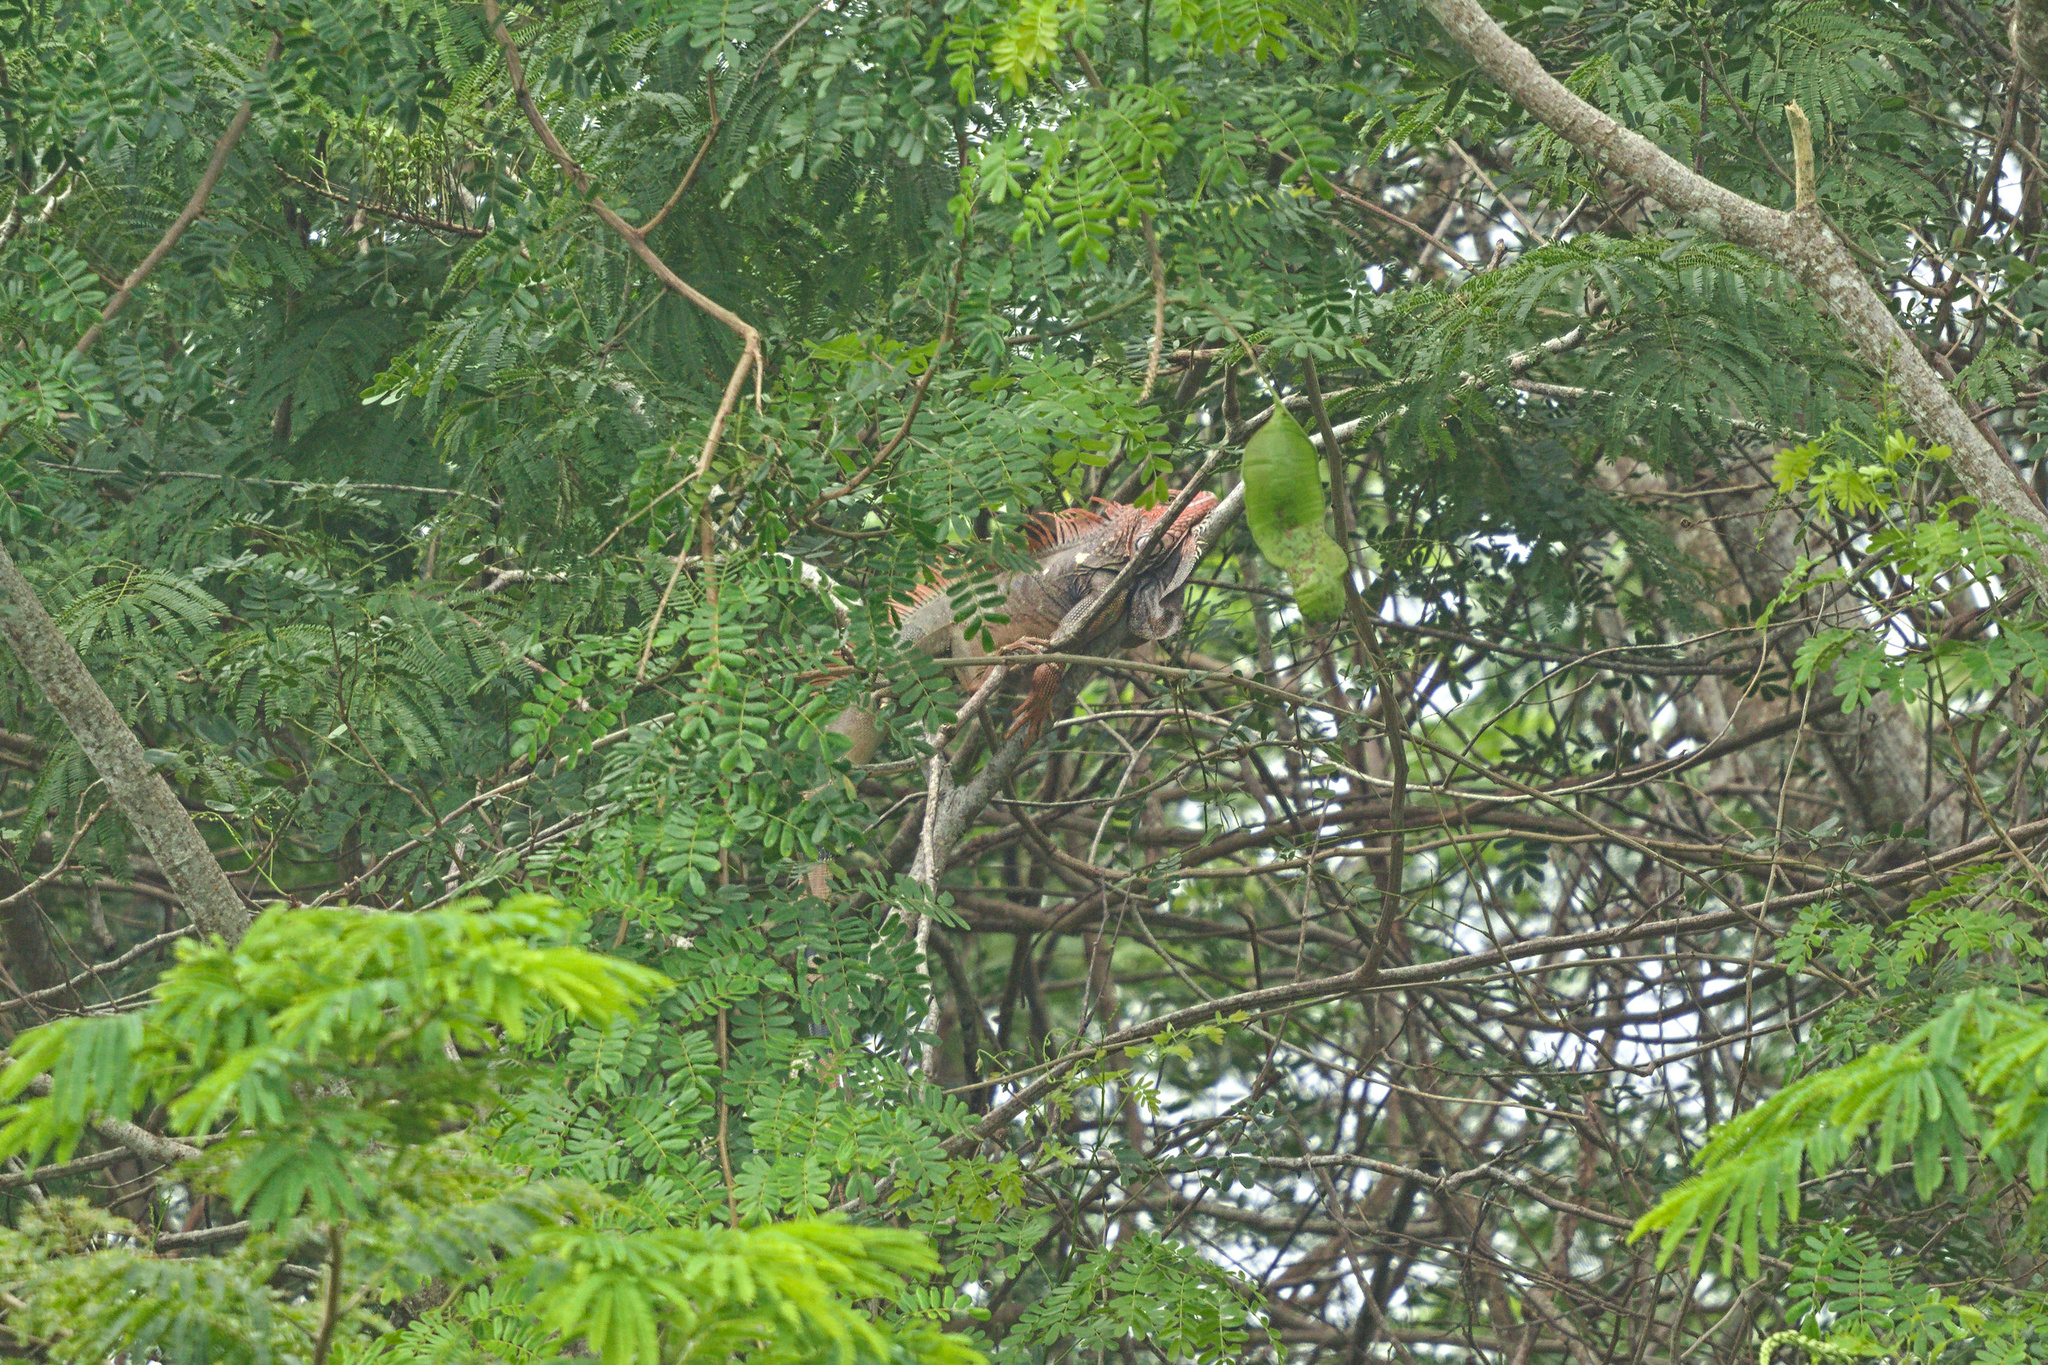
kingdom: Animalia
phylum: Chordata
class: Squamata
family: Iguanidae
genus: Iguana
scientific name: Iguana iguana
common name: Green iguana
